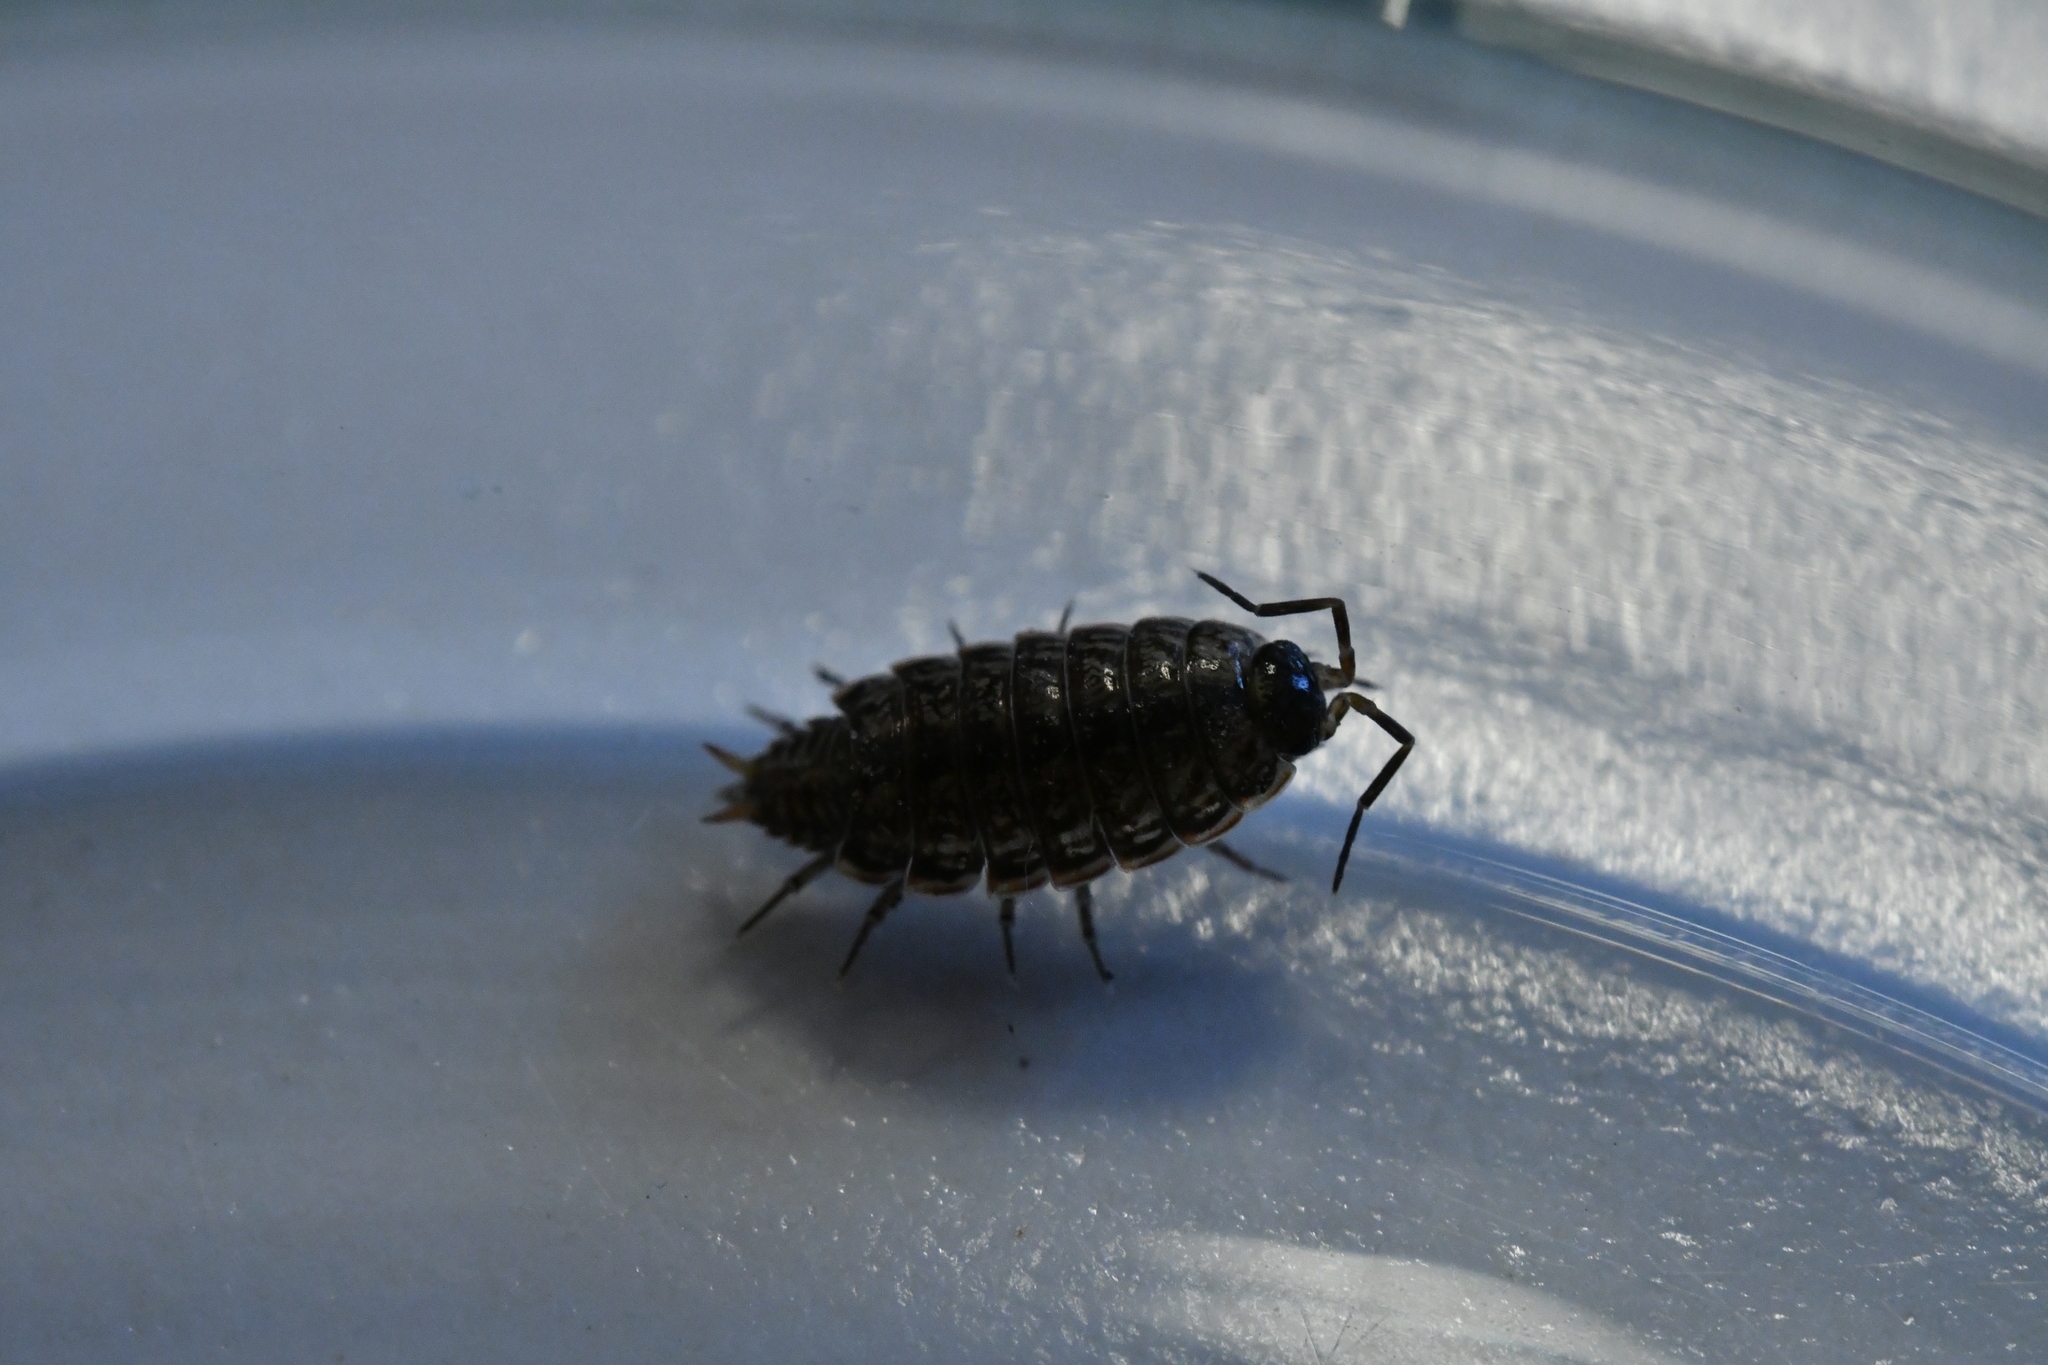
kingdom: Animalia
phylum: Arthropoda
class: Malacostraca
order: Isopoda
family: Philosciidae
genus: Philoscia
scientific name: Philoscia muscorum
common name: Common striped woodlouse
